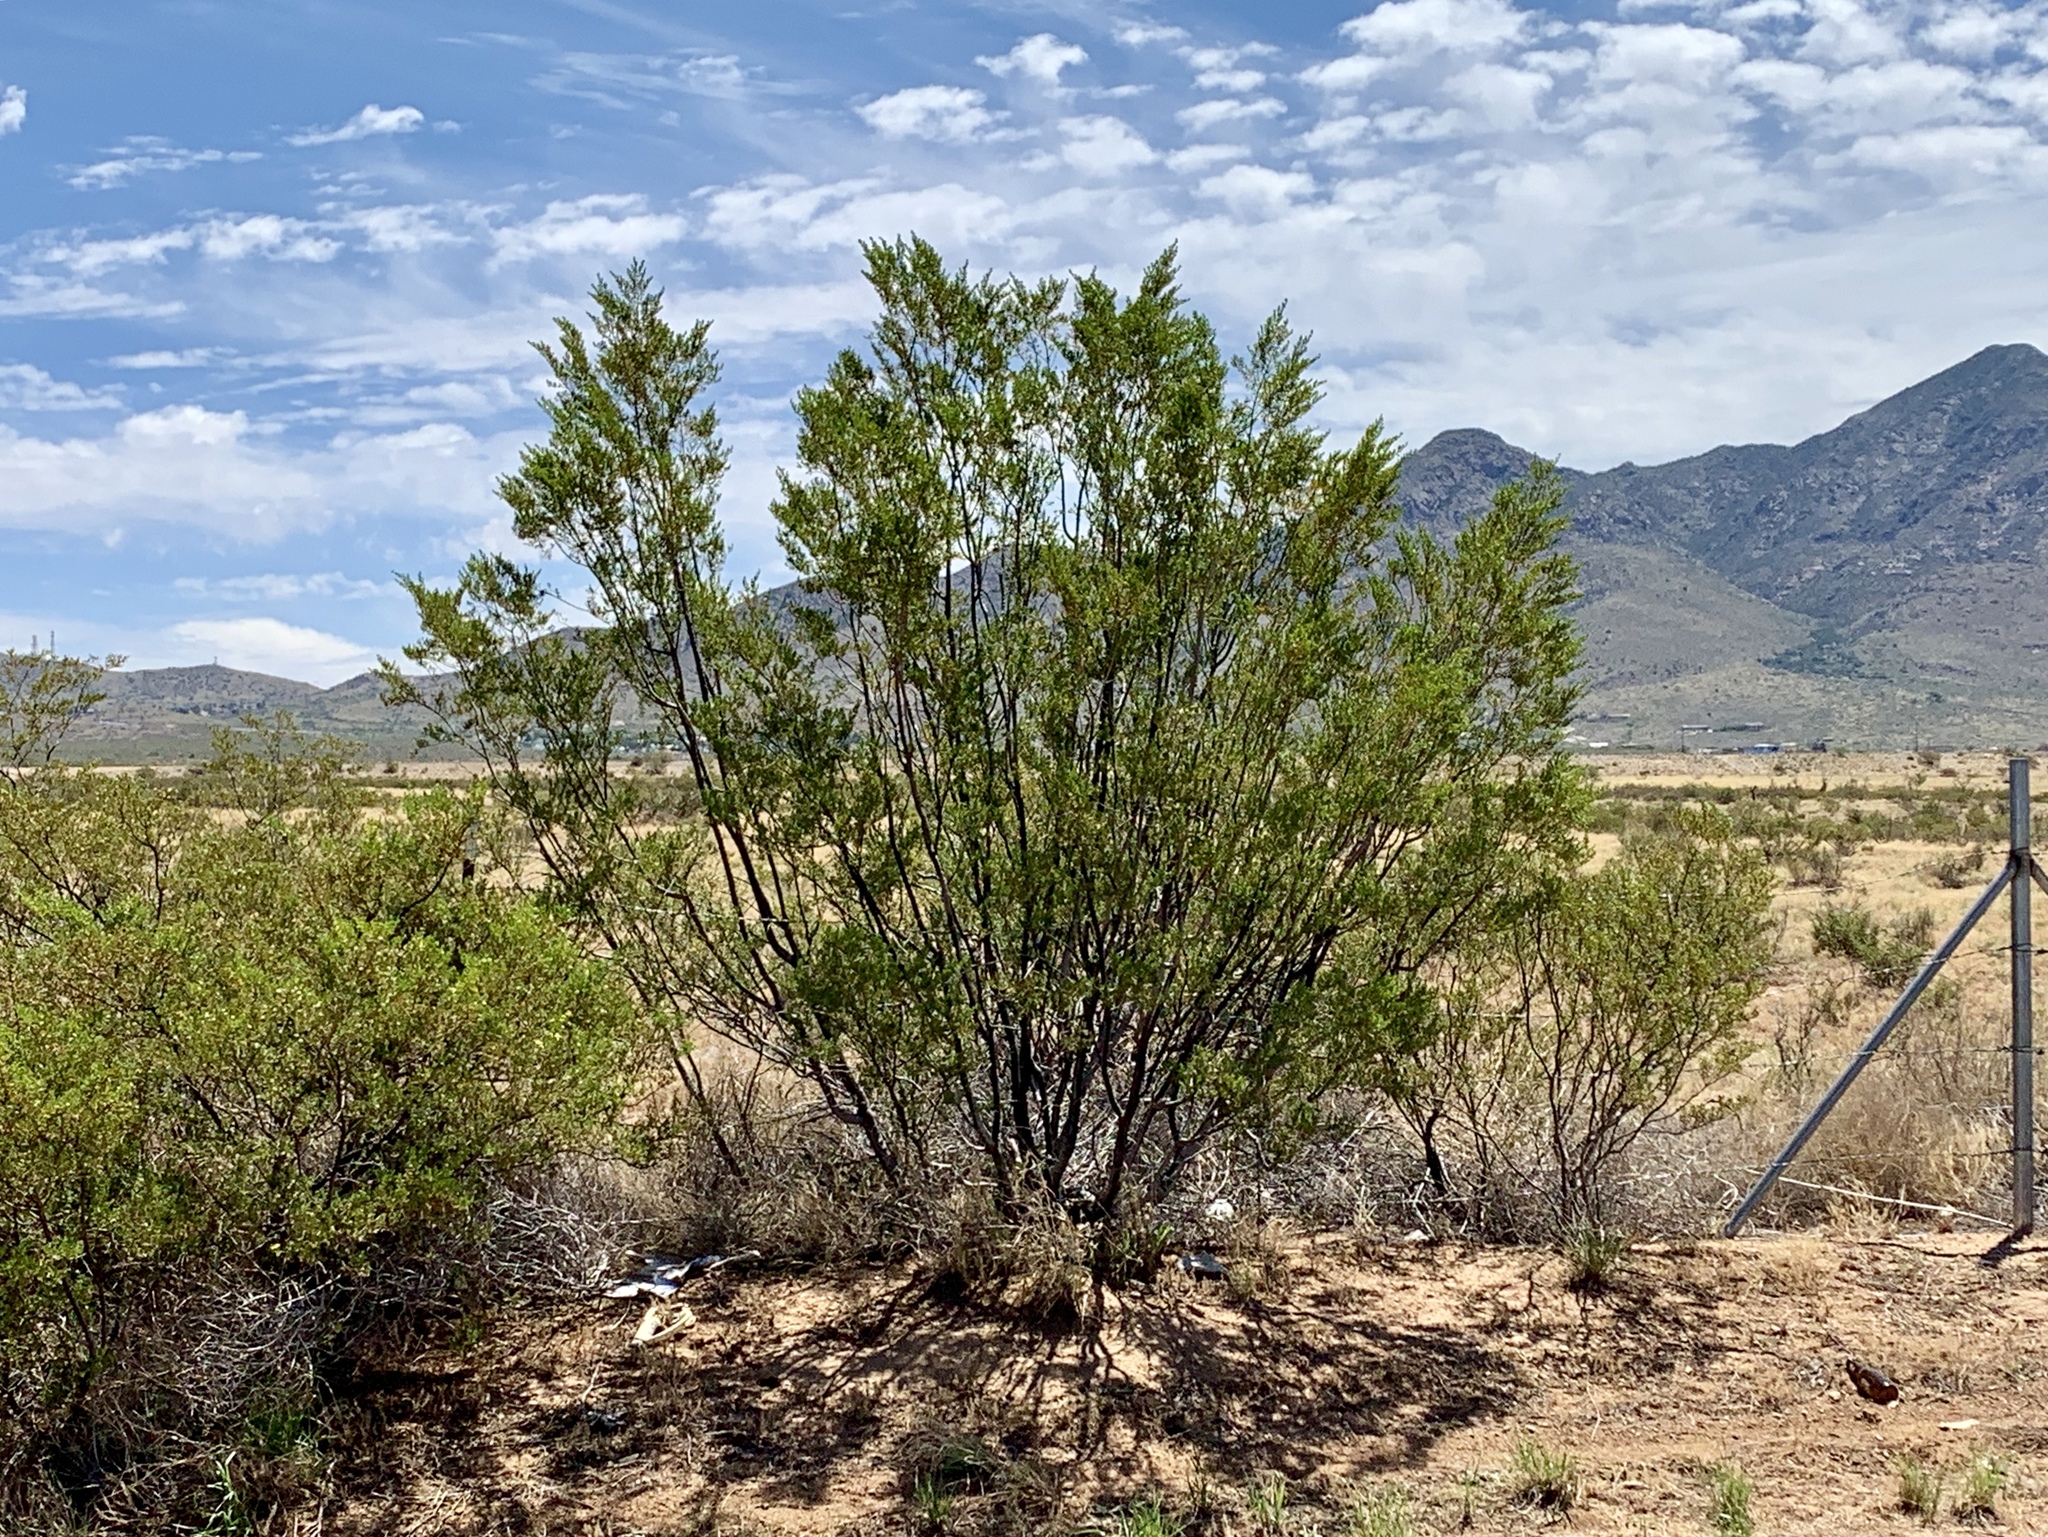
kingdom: Plantae
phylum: Tracheophyta
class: Magnoliopsida
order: Zygophyllales
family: Zygophyllaceae
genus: Larrea
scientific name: Larrea tridentata
